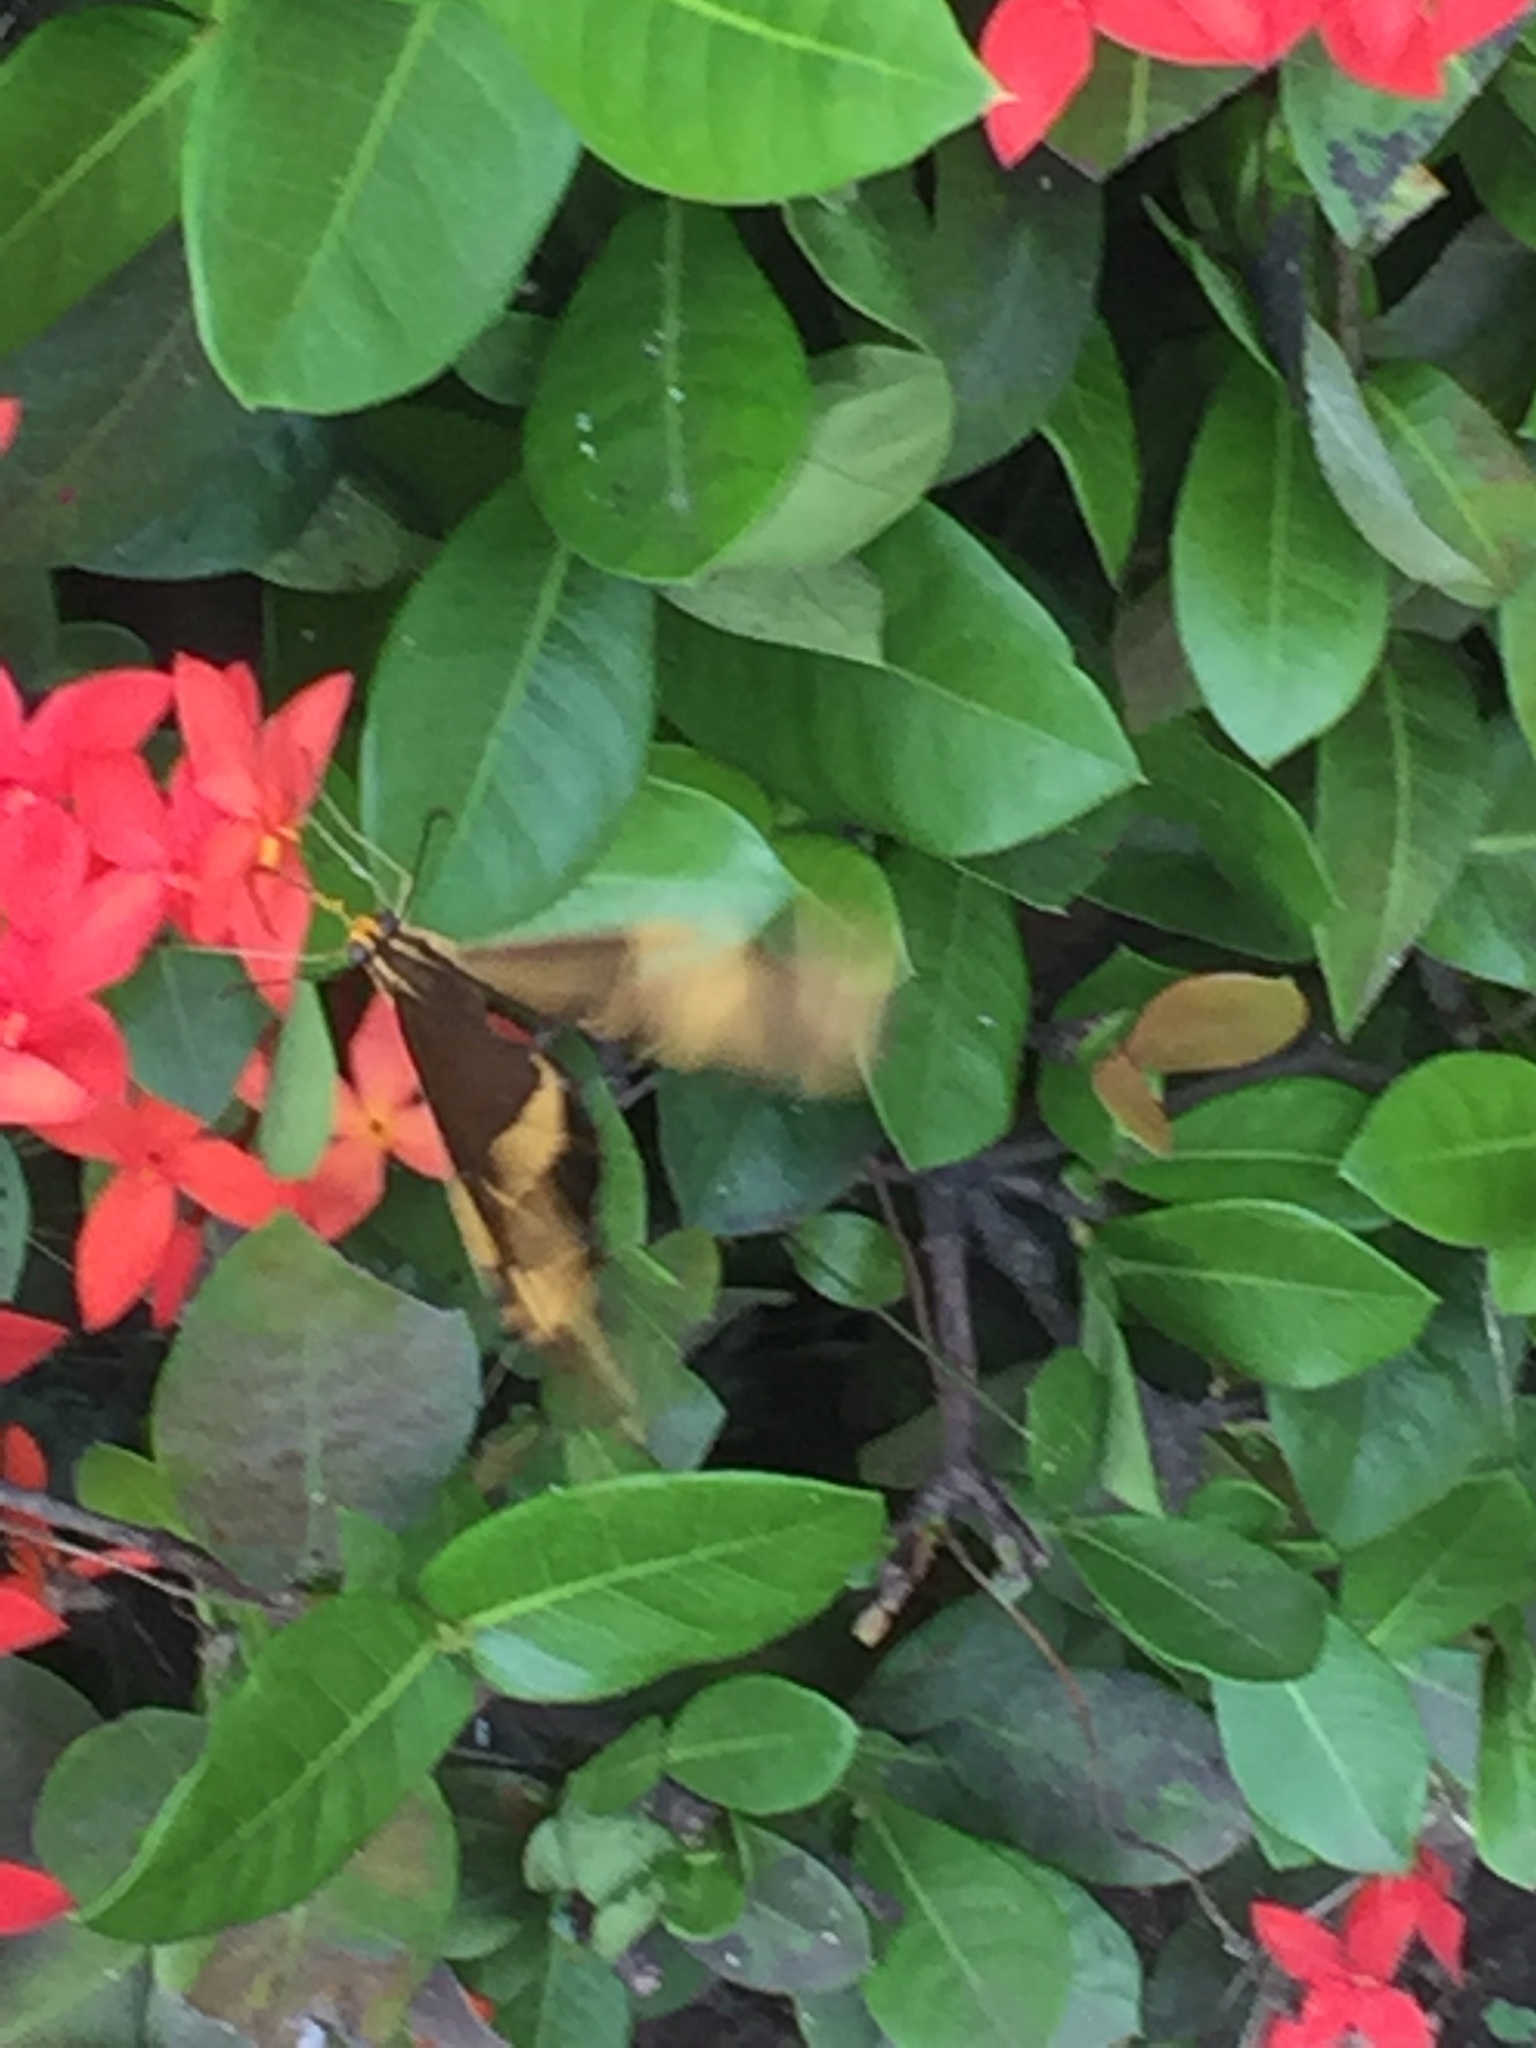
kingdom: Plantae
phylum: Tracheophyta
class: Magnoliopsida
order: Gentianales
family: Rubiaceae
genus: Ixora
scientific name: Ixora coccinea
